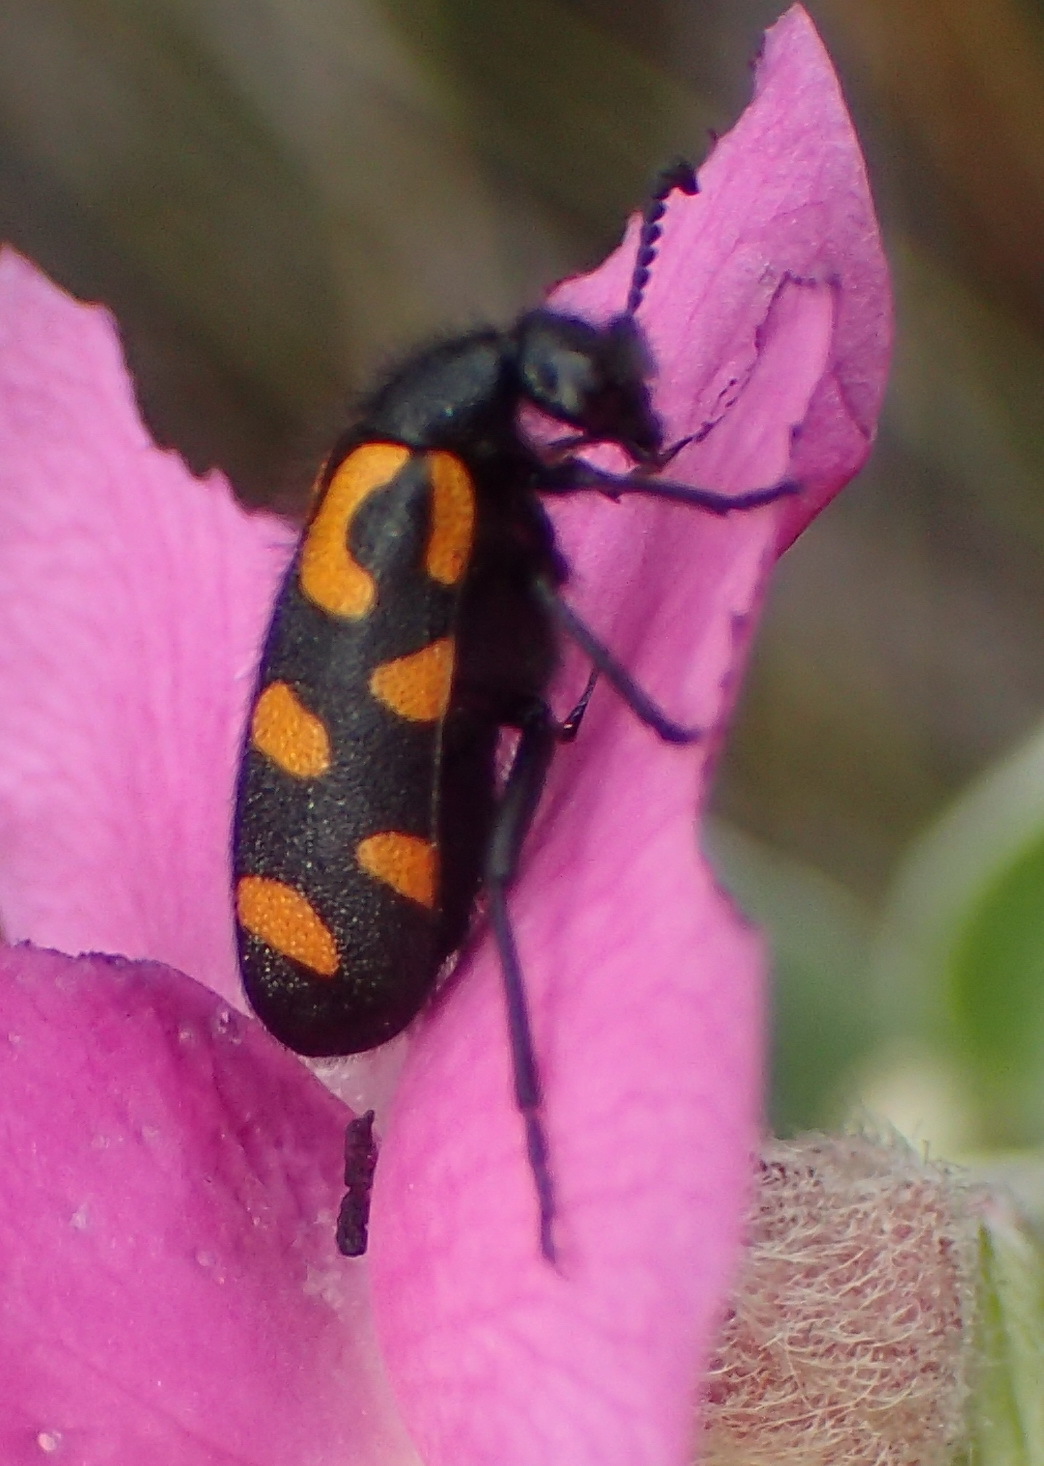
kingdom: Animalia
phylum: Arthropoda
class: Insecta
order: Coleoptera
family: Meloidae
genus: Ceroctis
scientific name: Ceroctis capensis
